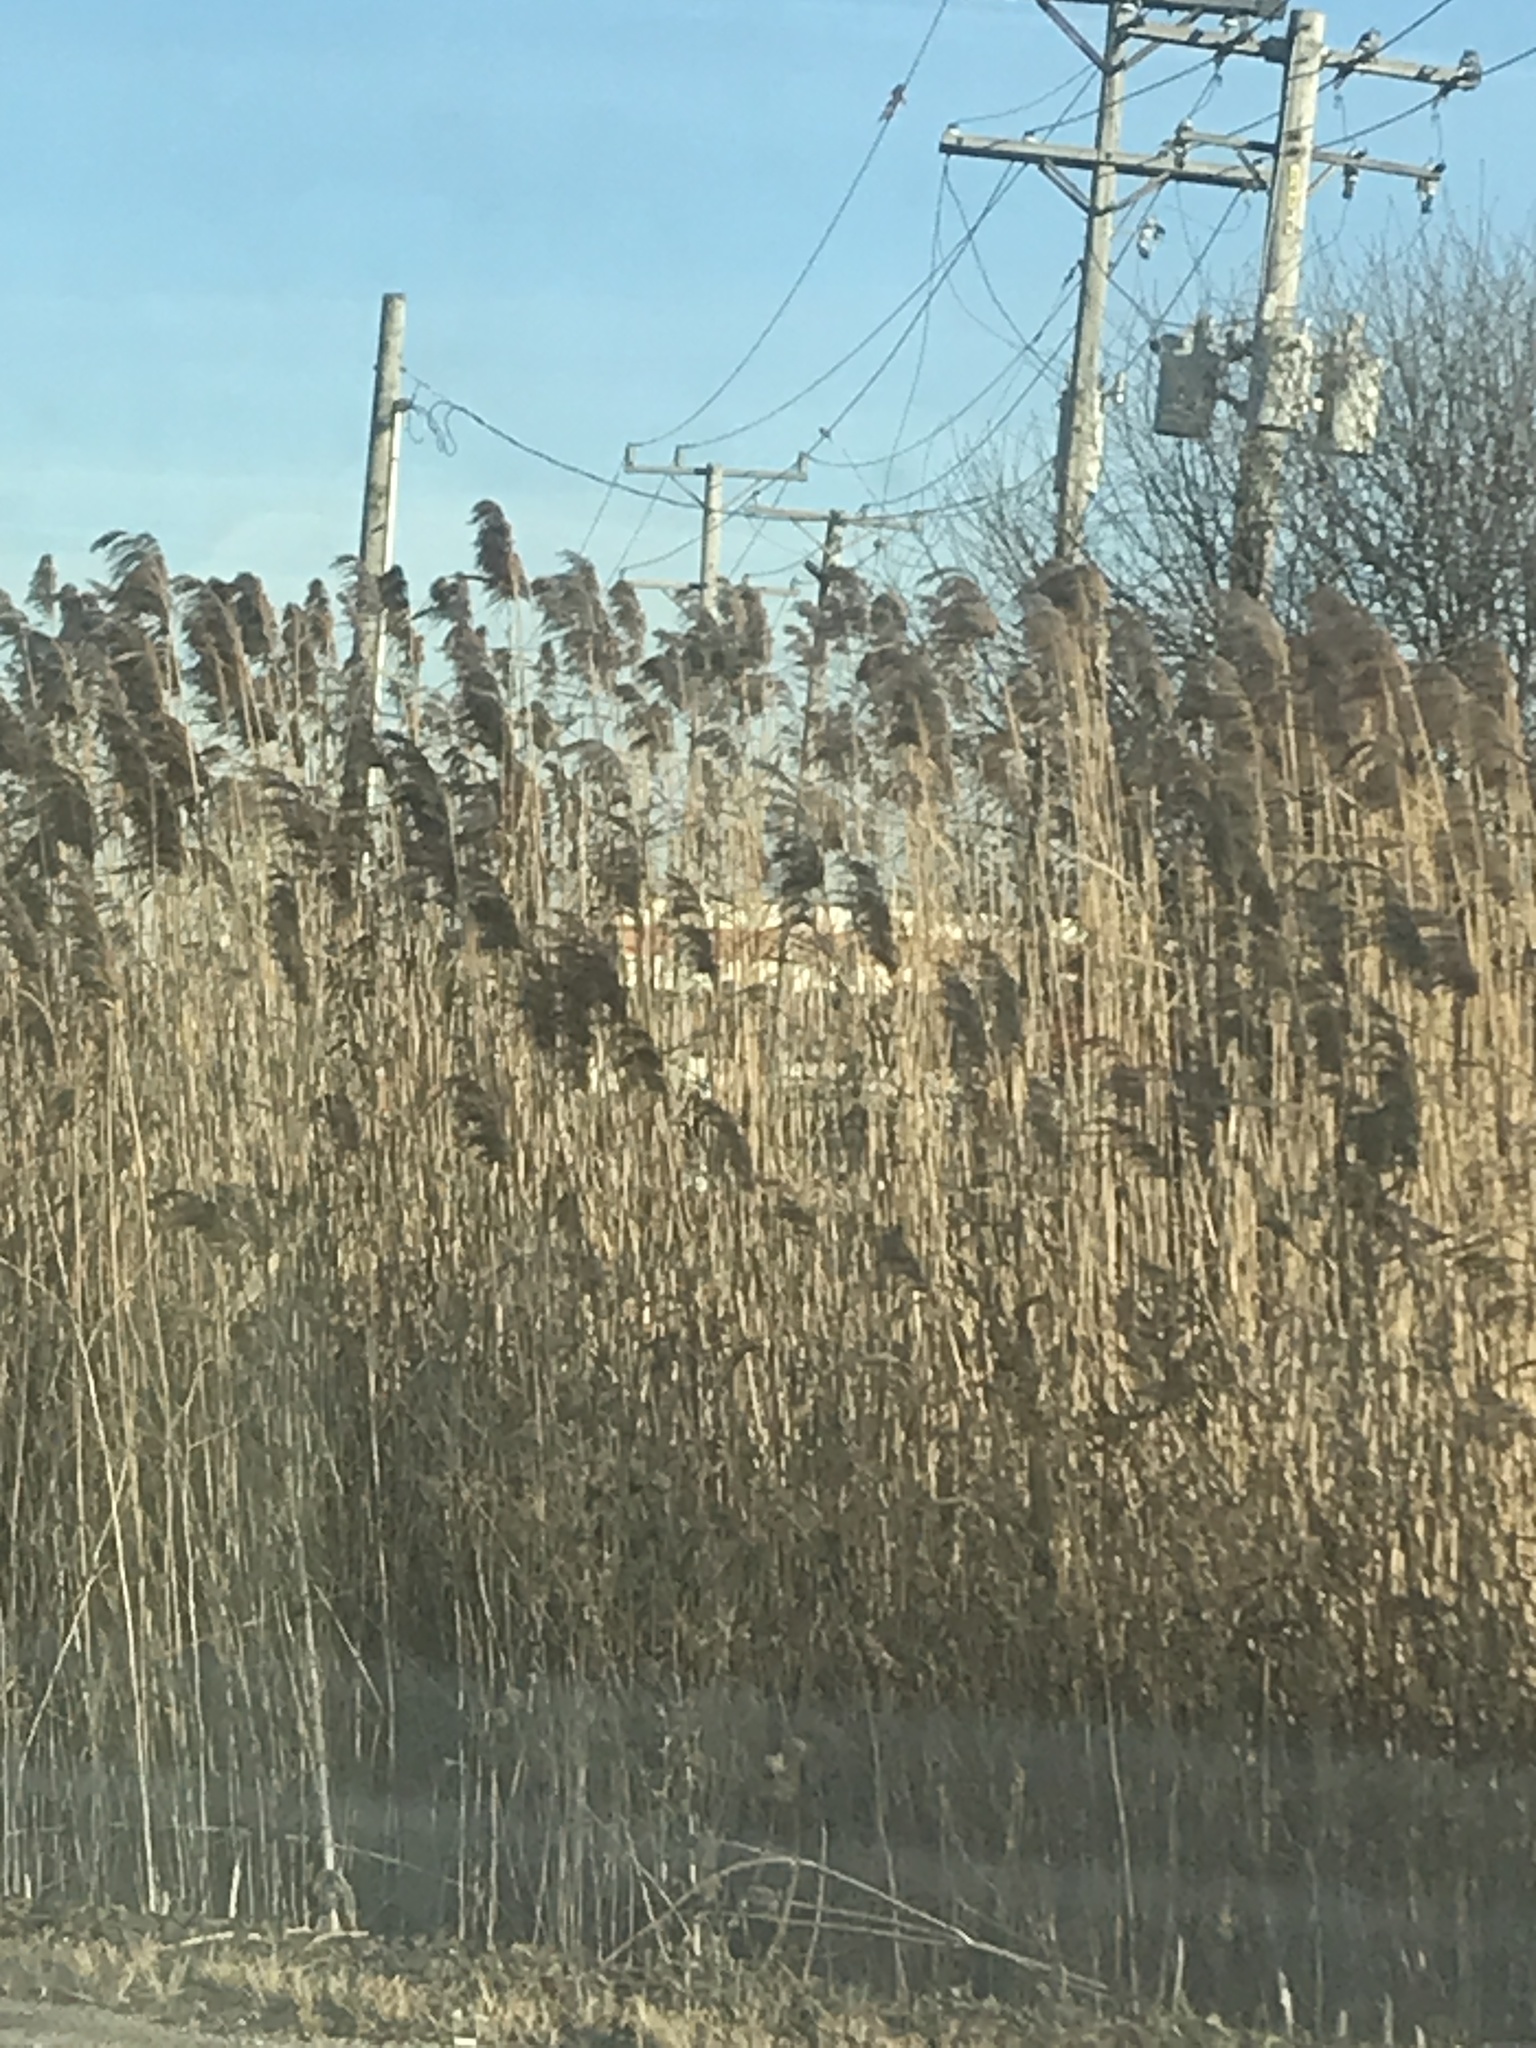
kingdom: Plantae
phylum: Tracheophyta
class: Liliopsida
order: Poales
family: Poaceae
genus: Phragmites
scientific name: Phragmites australis
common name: Common reed
